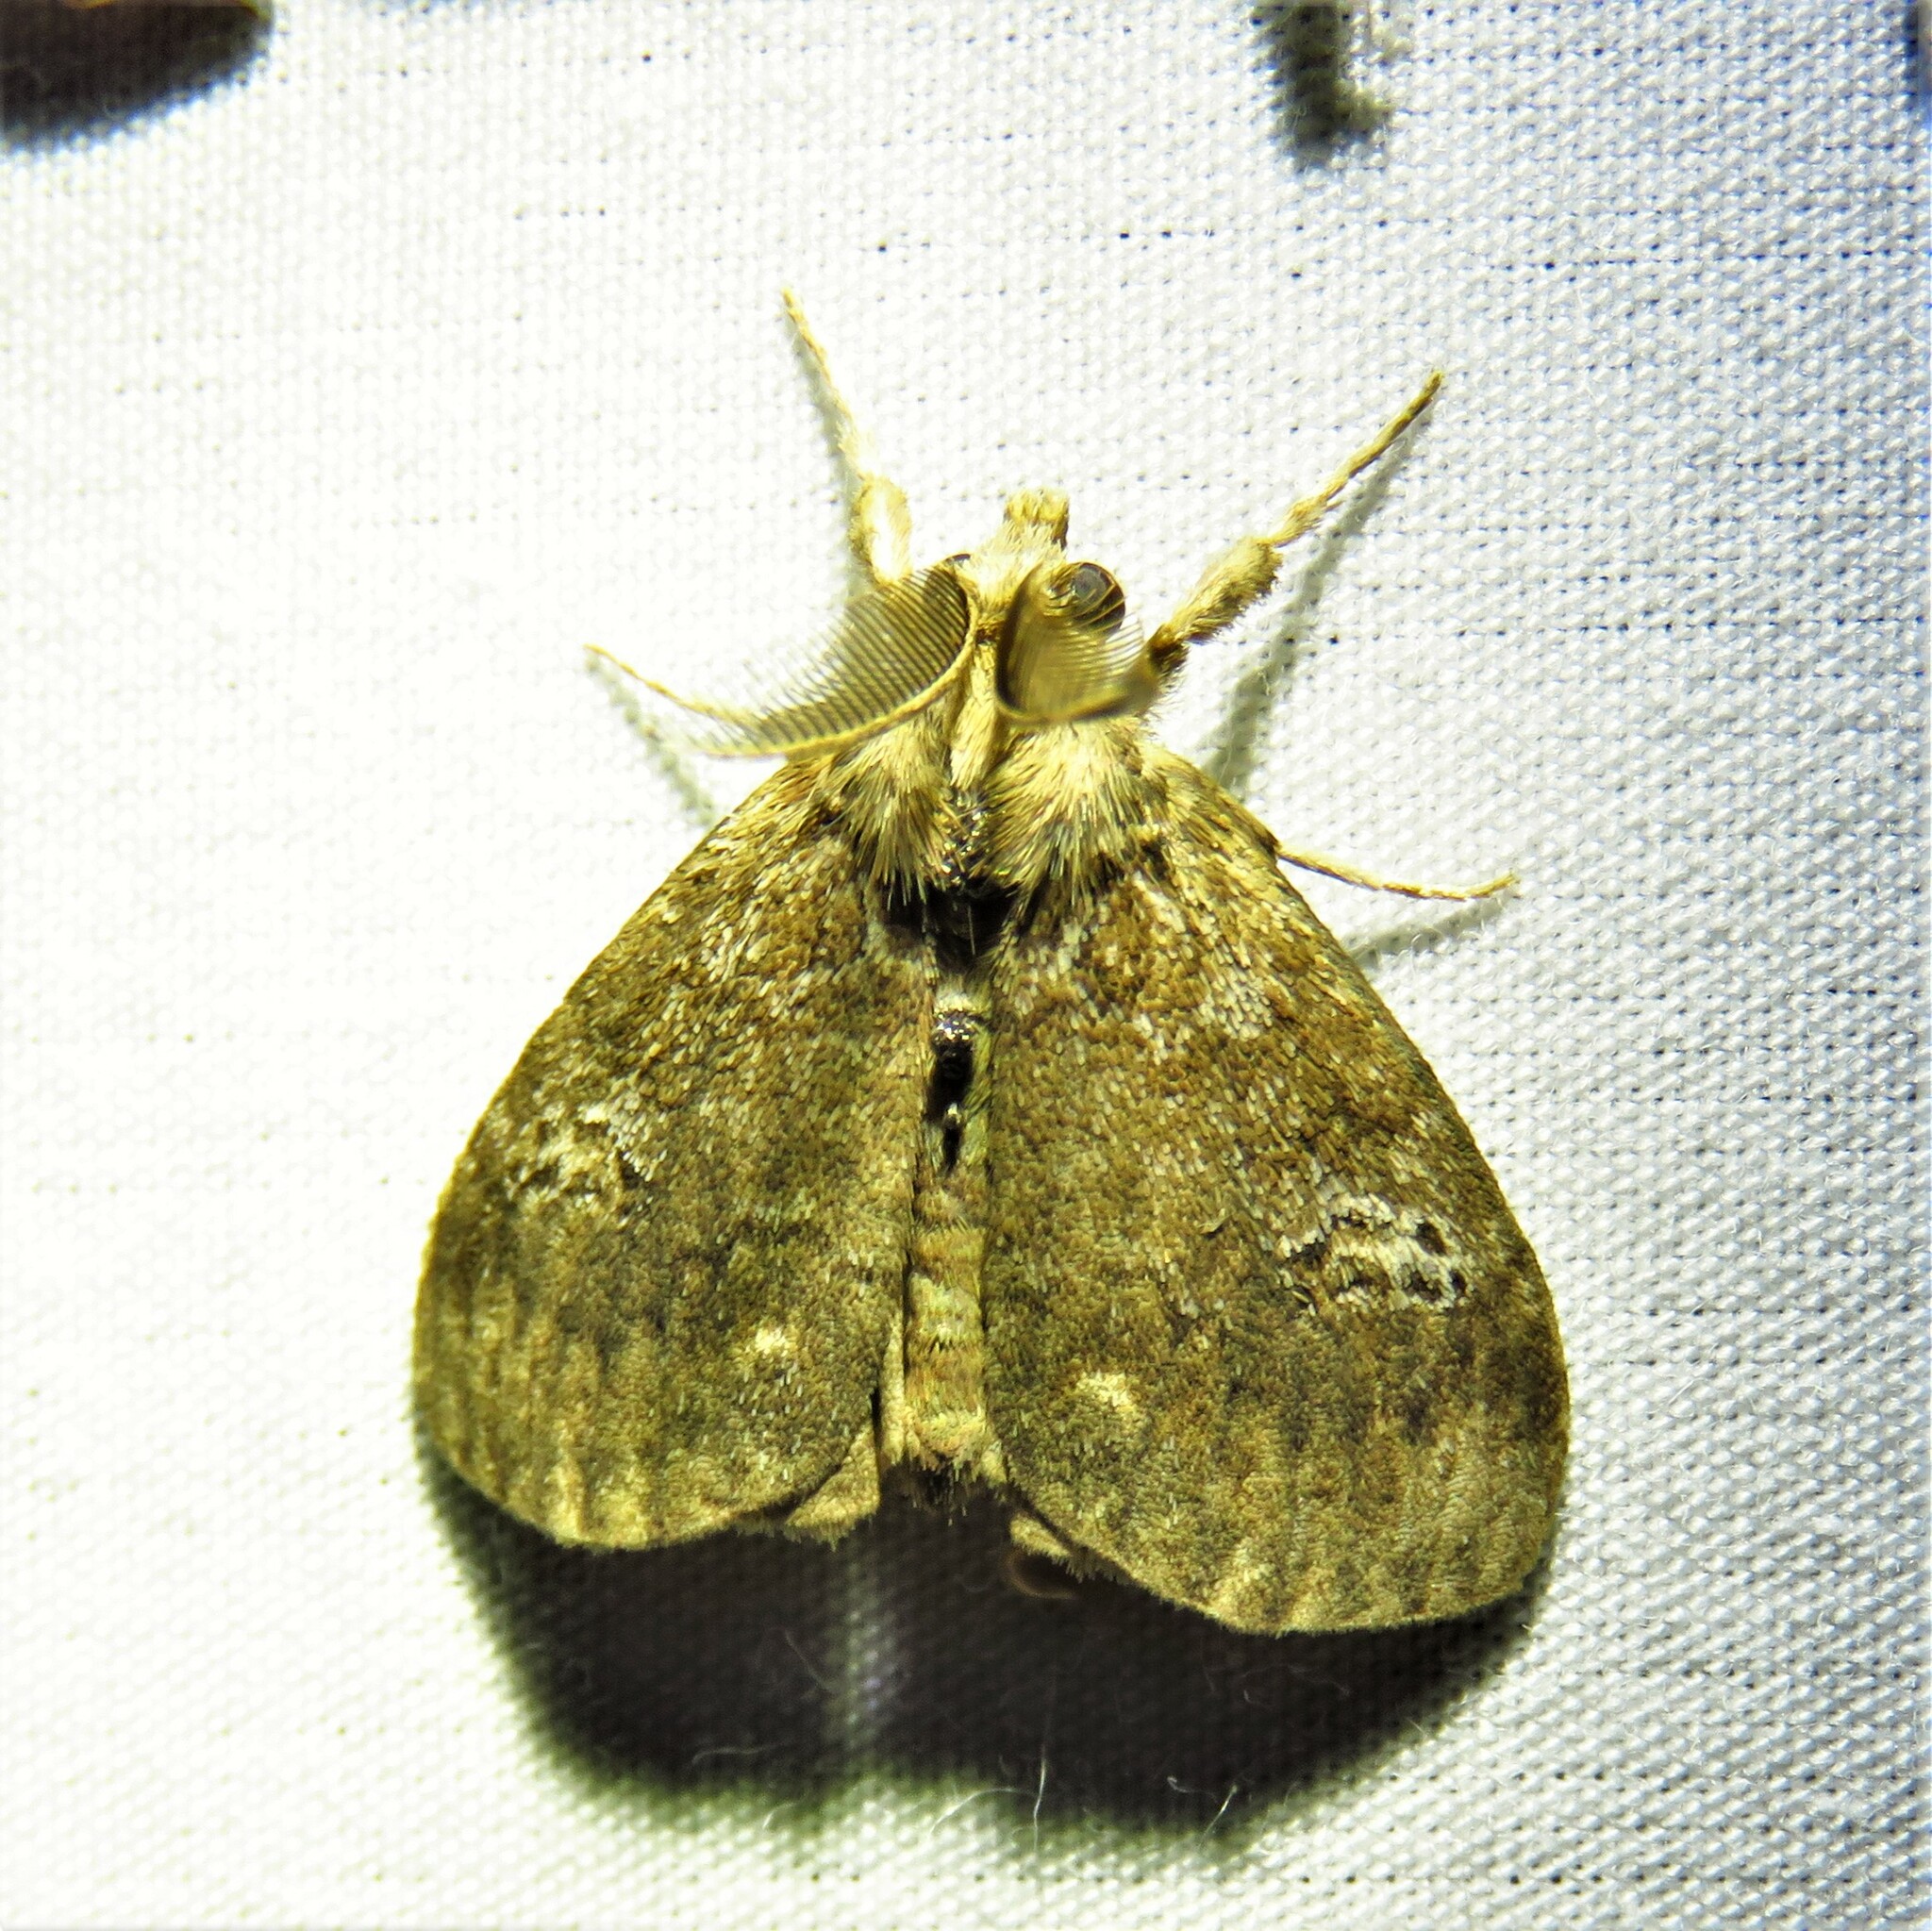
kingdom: Animalia
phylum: Arthropoda
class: Insecta
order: Lepidoptera
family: Erebidae
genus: Orgyia
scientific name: Orgyia detrita
